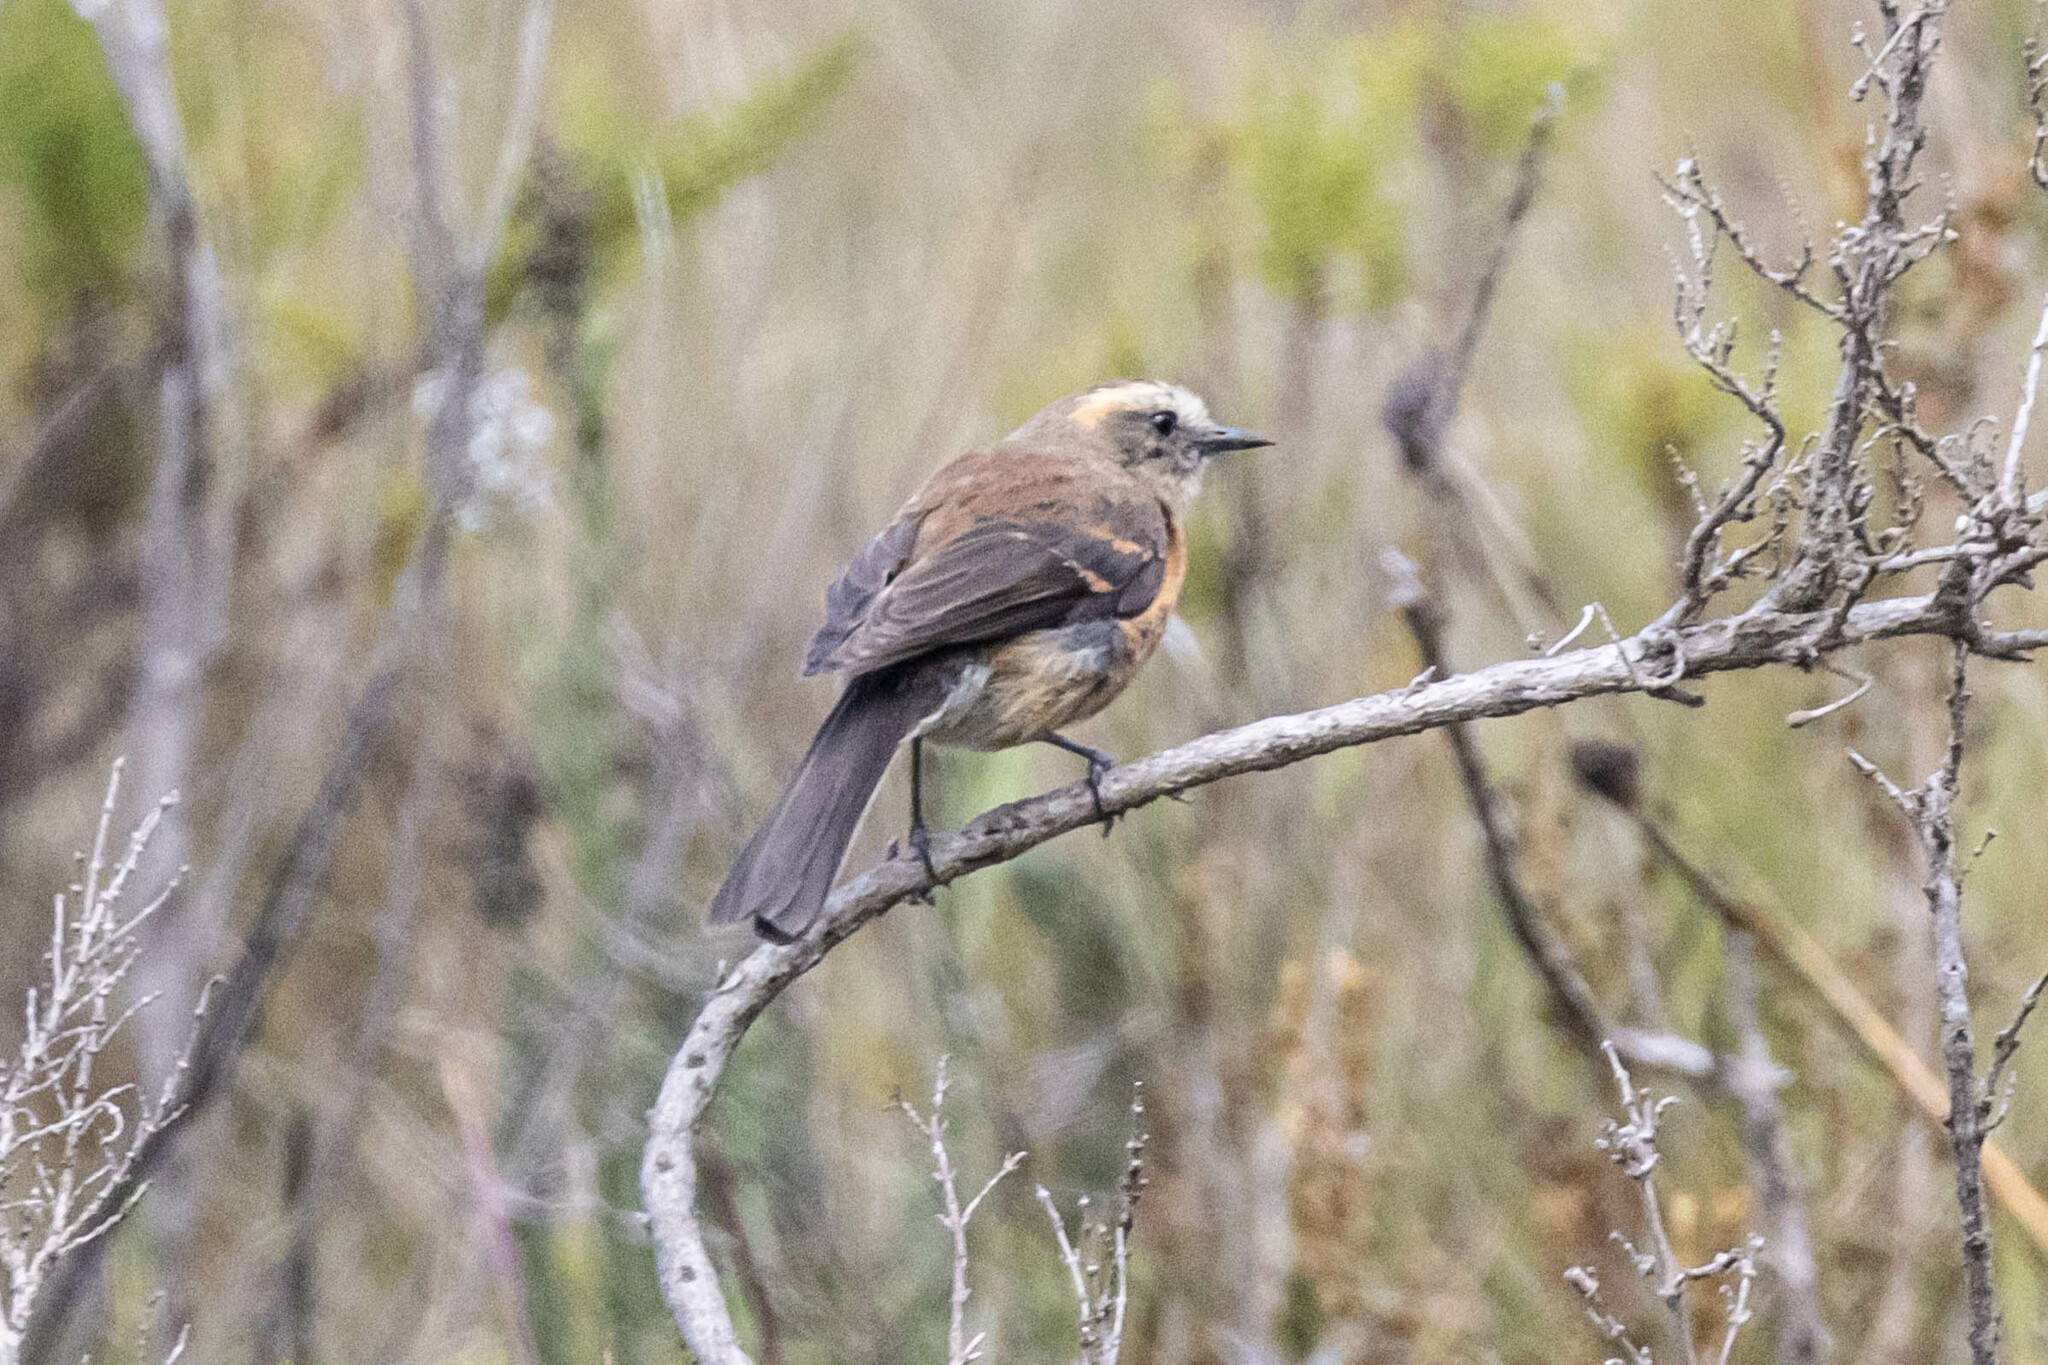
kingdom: Animalia
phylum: Chordata
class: Aves
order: Passeriformes
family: Tyrannidae
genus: Ochthoeca
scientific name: Ochthoeca fumicolor
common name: Brown-backed chat-tyrant
